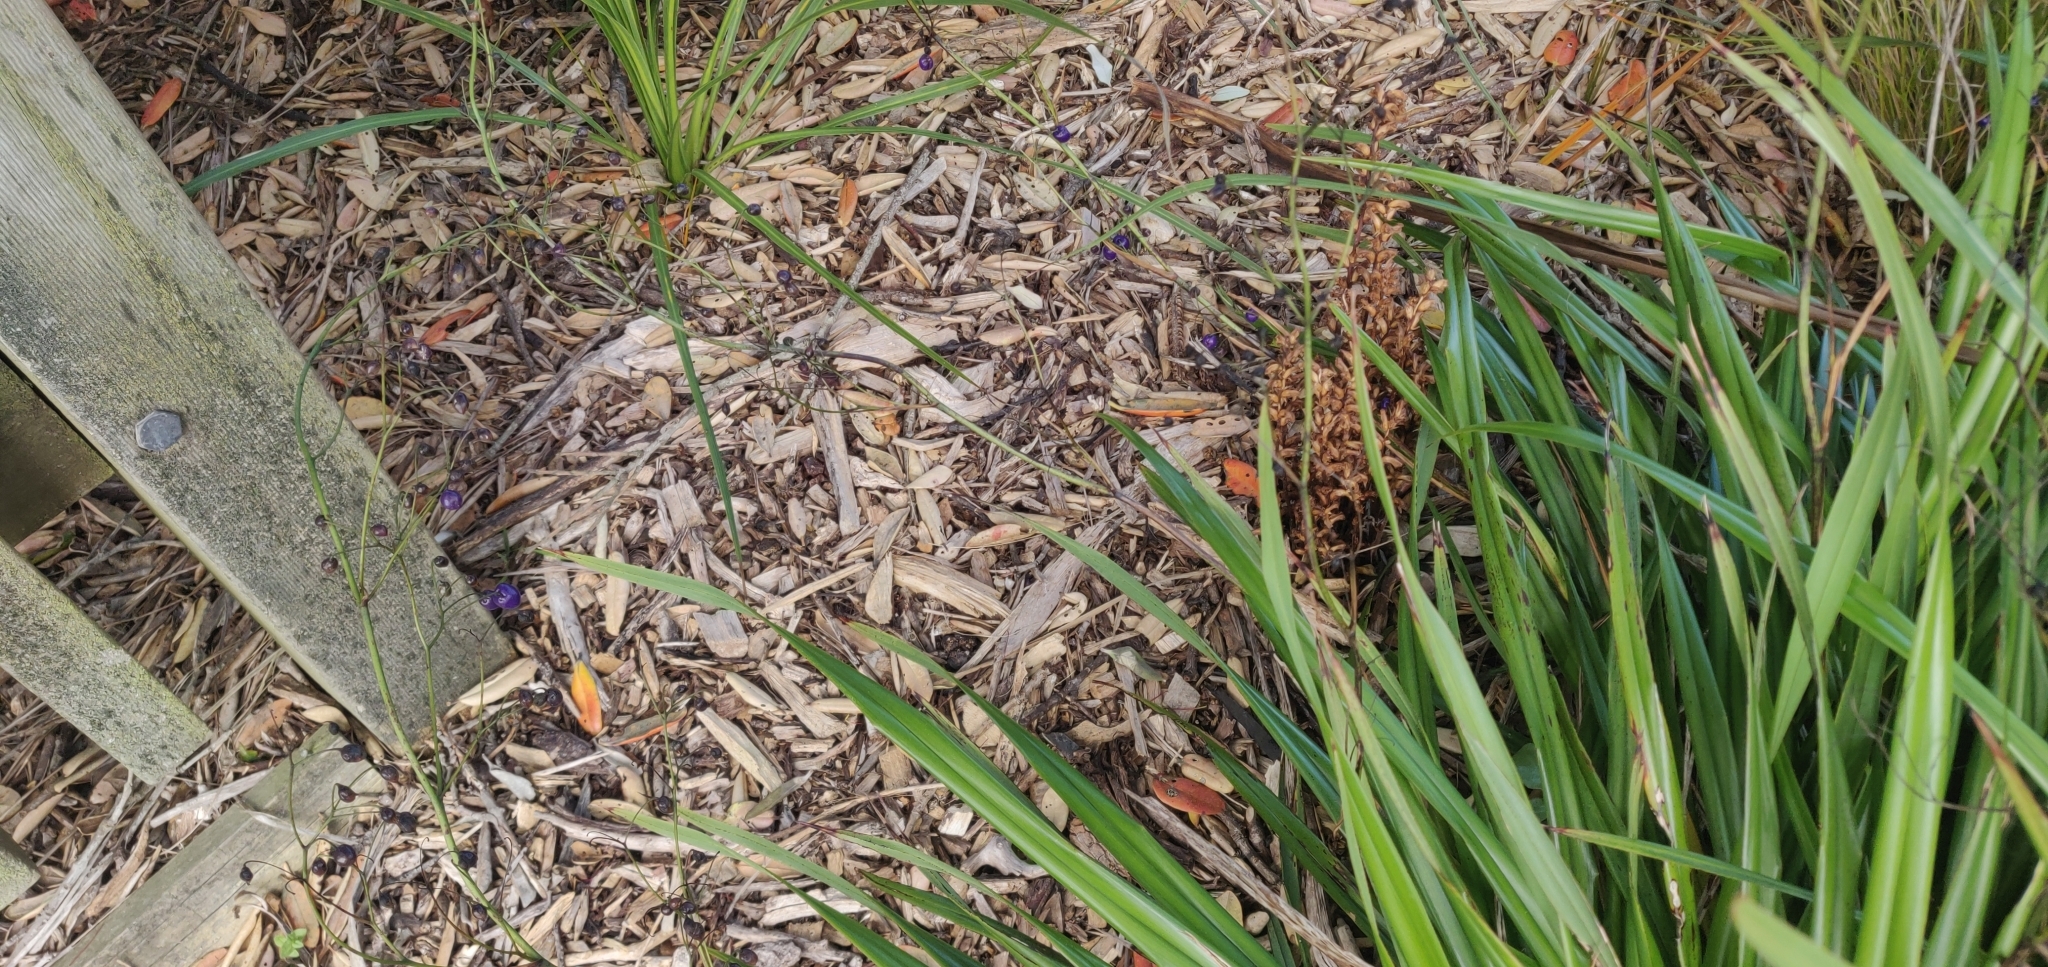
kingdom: Plantae
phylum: Tracheophyta
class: Magnoliopsida
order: Lamiales
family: Orobanchaceae
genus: Orobanche
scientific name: Orobanche minor
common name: Common broomrape
